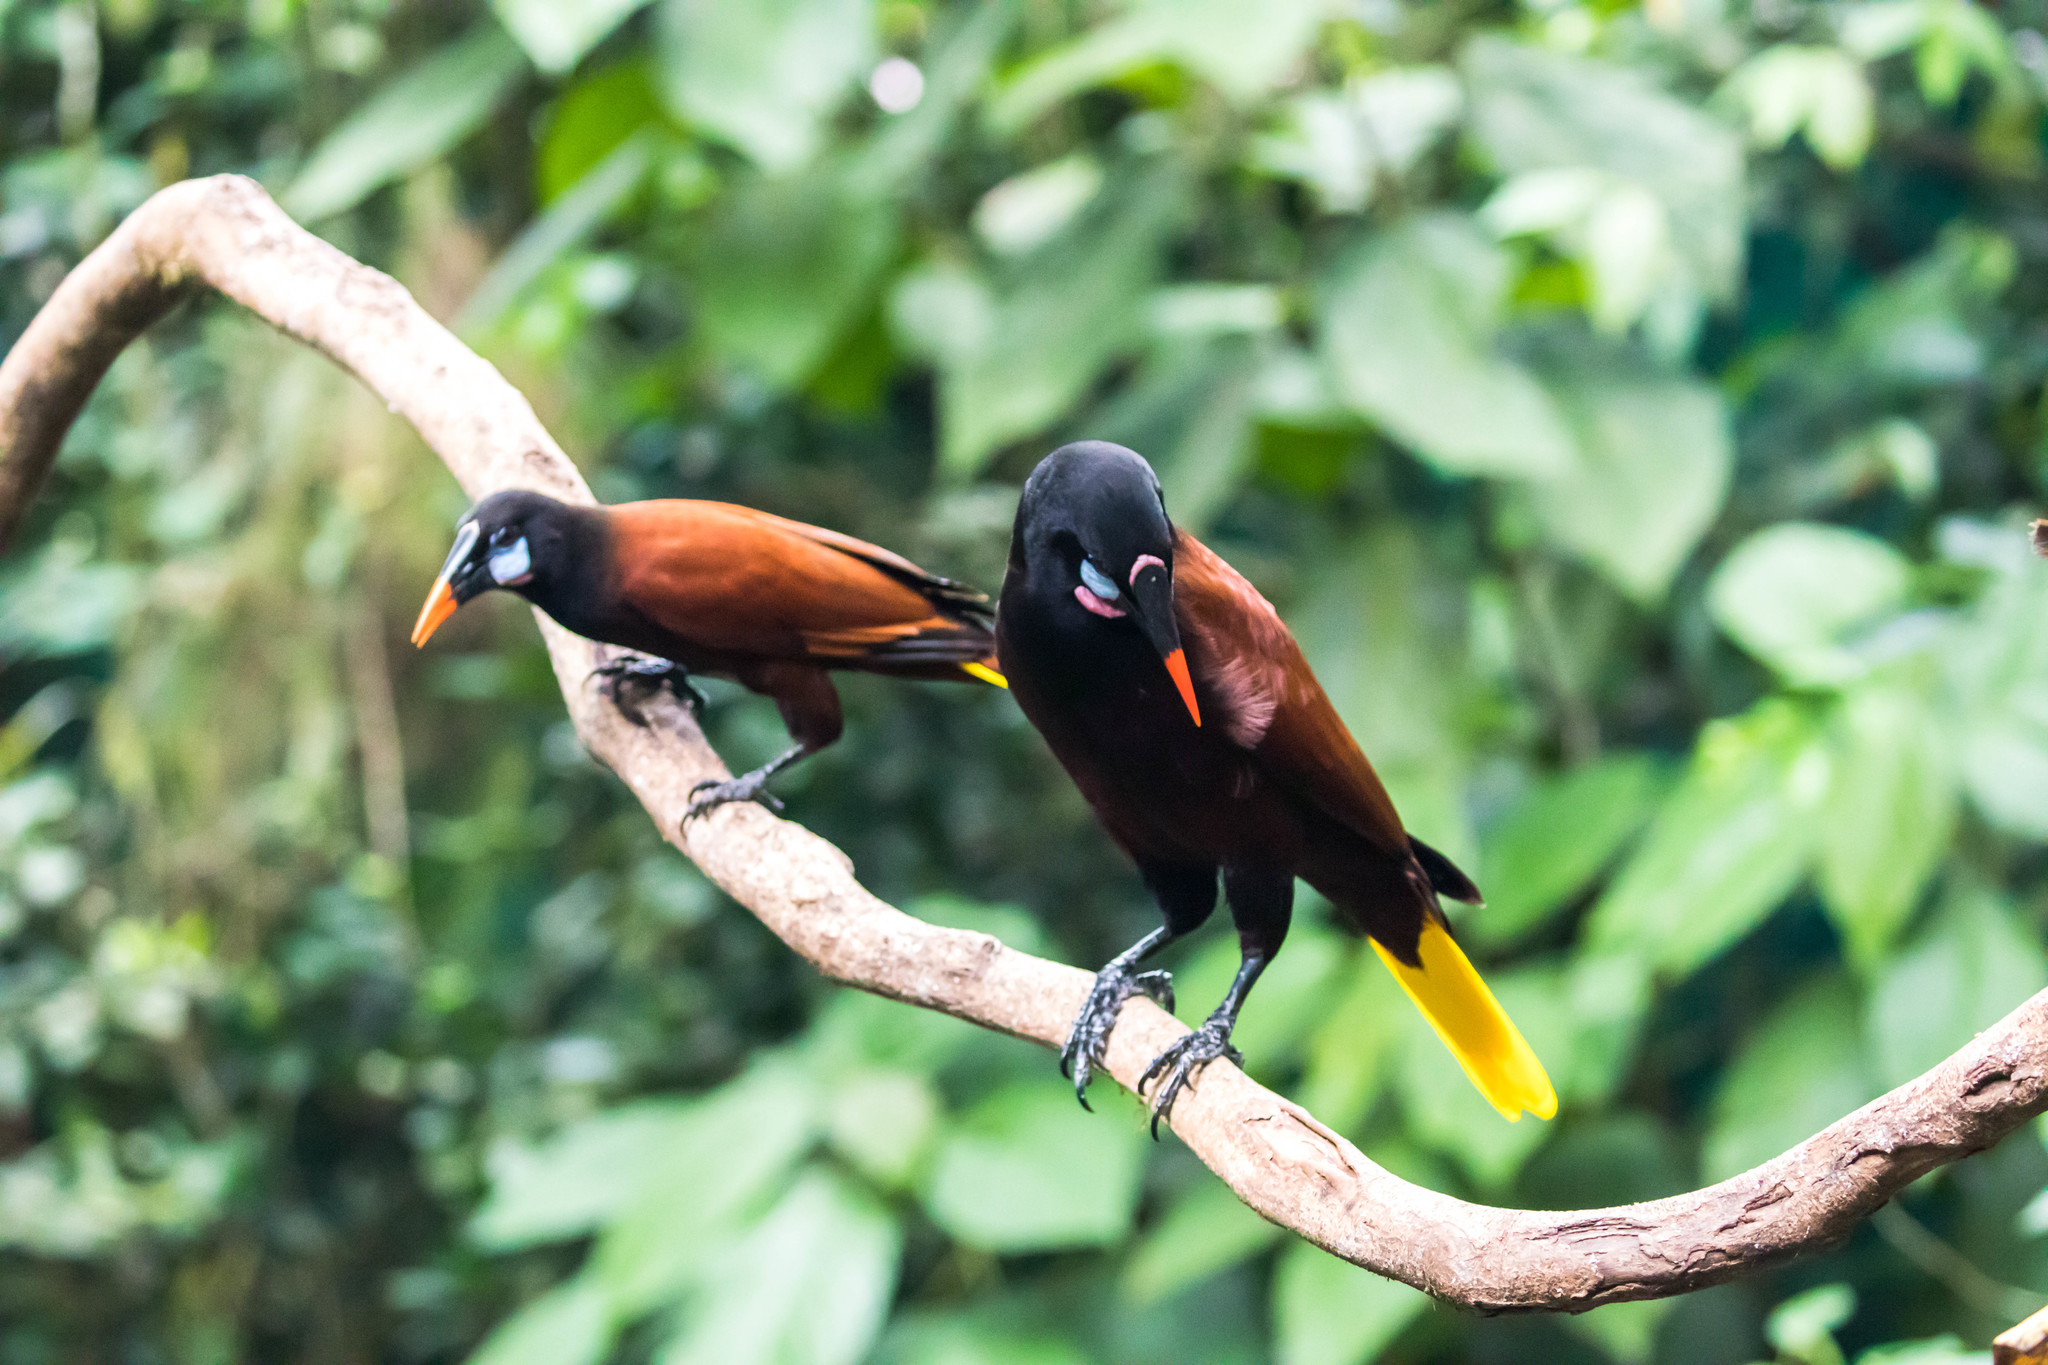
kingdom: Animalia
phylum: Chordata
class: Aves
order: Passeriformes
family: Icteridae
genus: Psarocolius
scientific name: Psarocolius montezuma
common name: Montezuma oropendola
